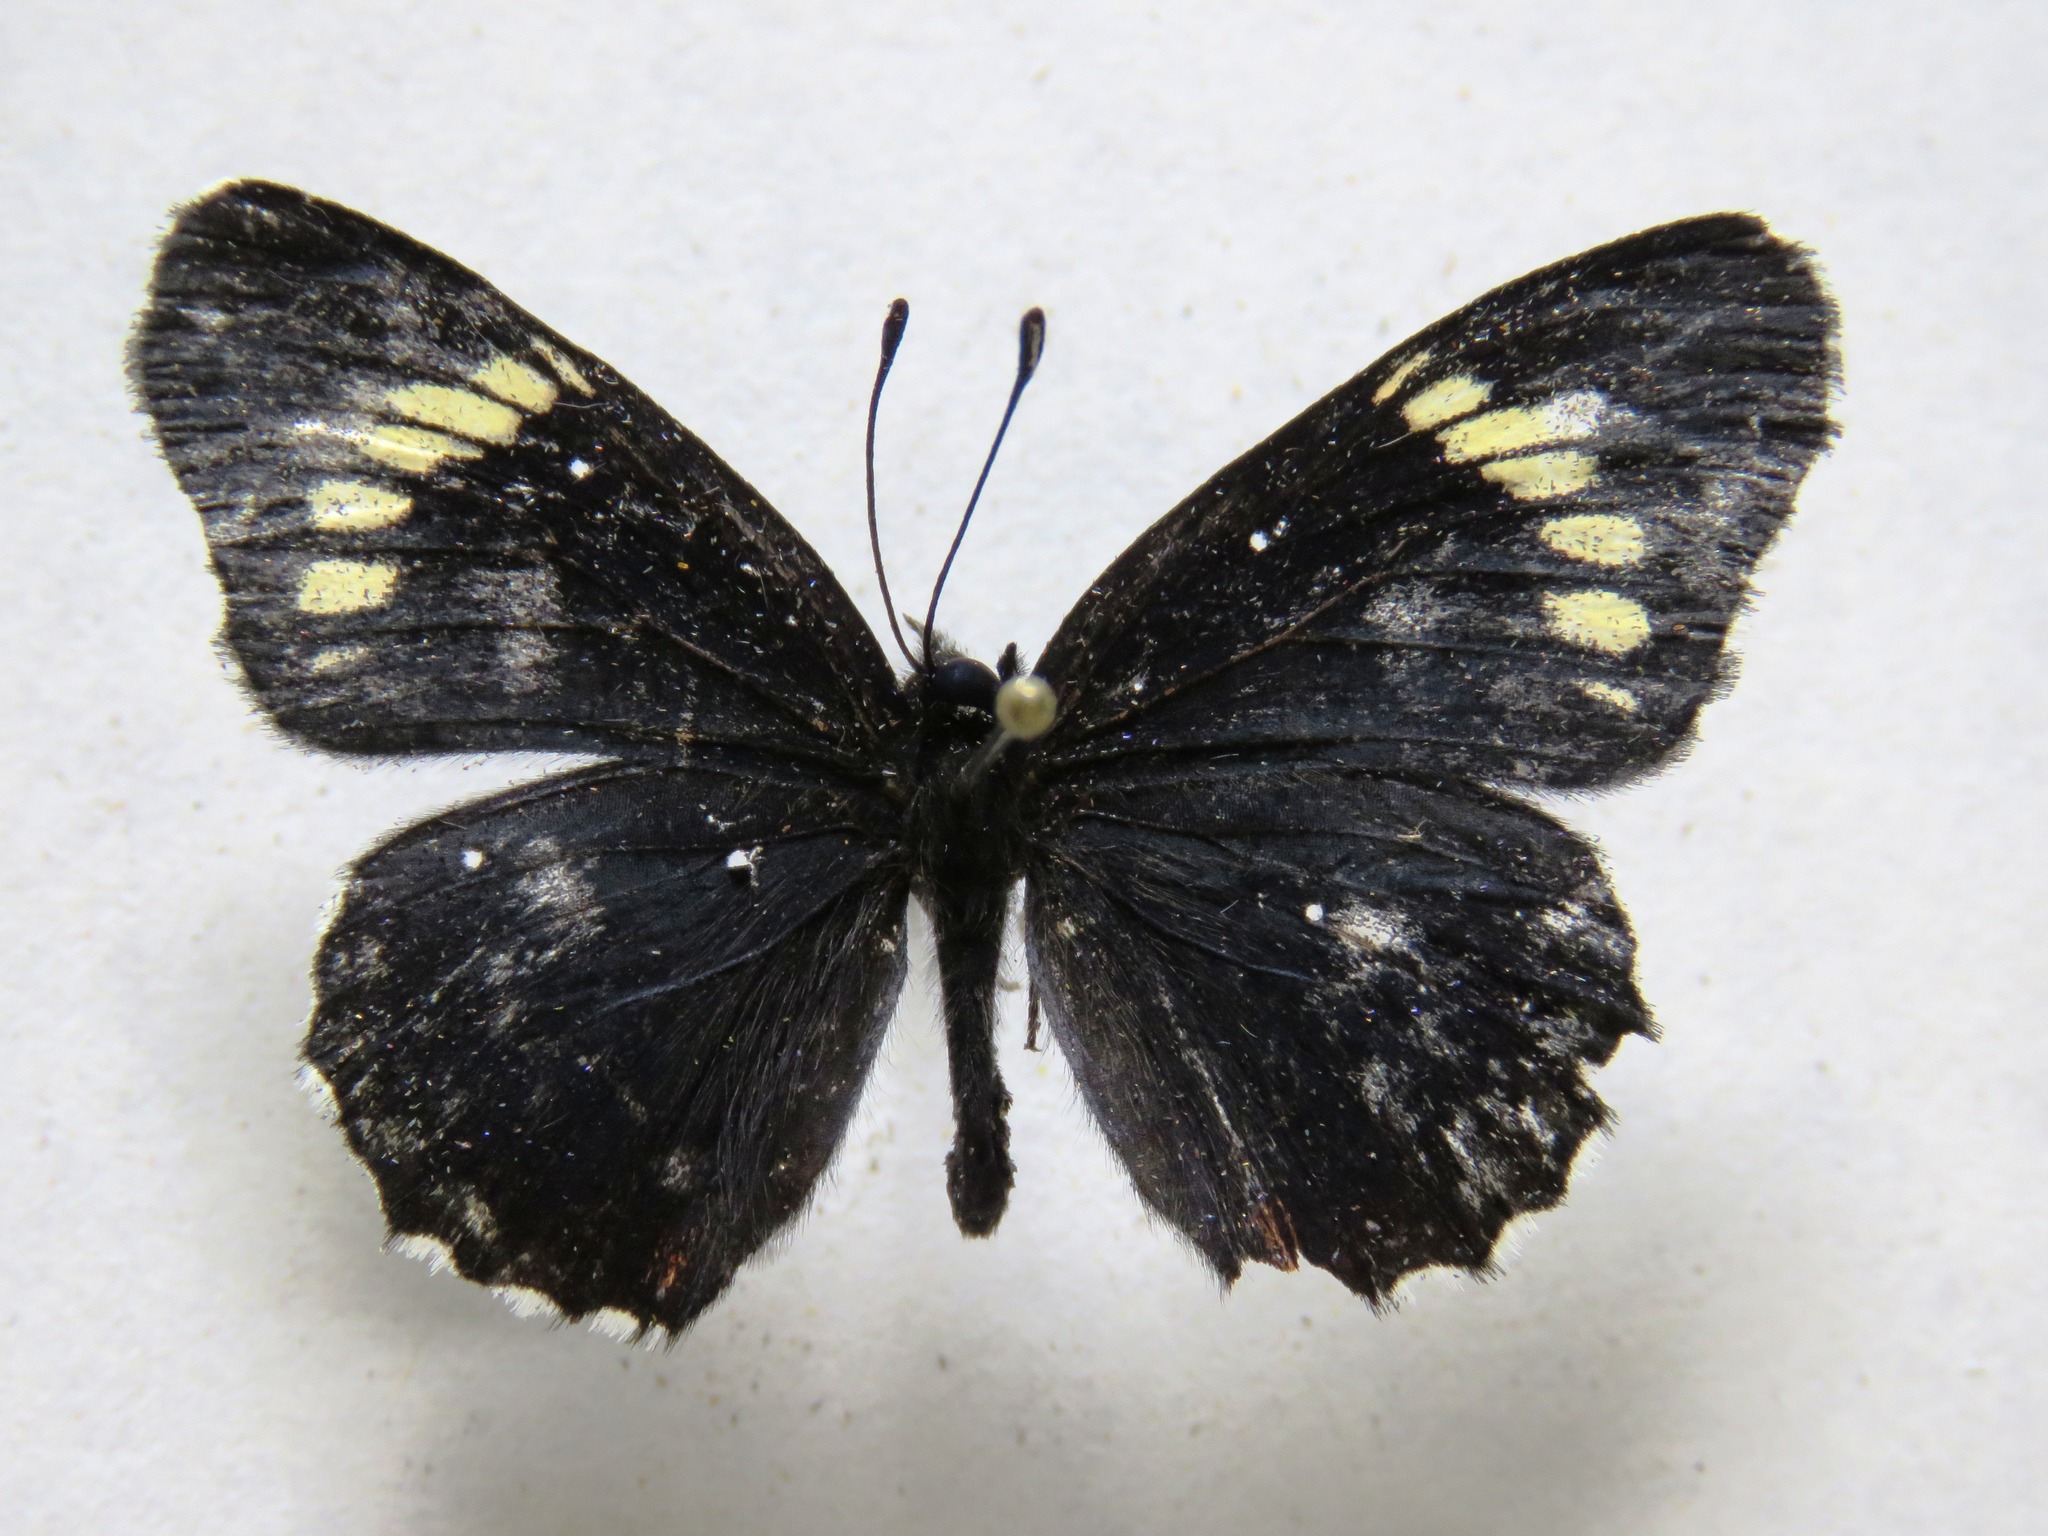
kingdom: Animalia
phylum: Arthropoda
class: Insecta
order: Lepidoptera
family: Nymphalidae
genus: Chlosyne
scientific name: Chlosyne melanarge
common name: Cream-banded checkerspot
